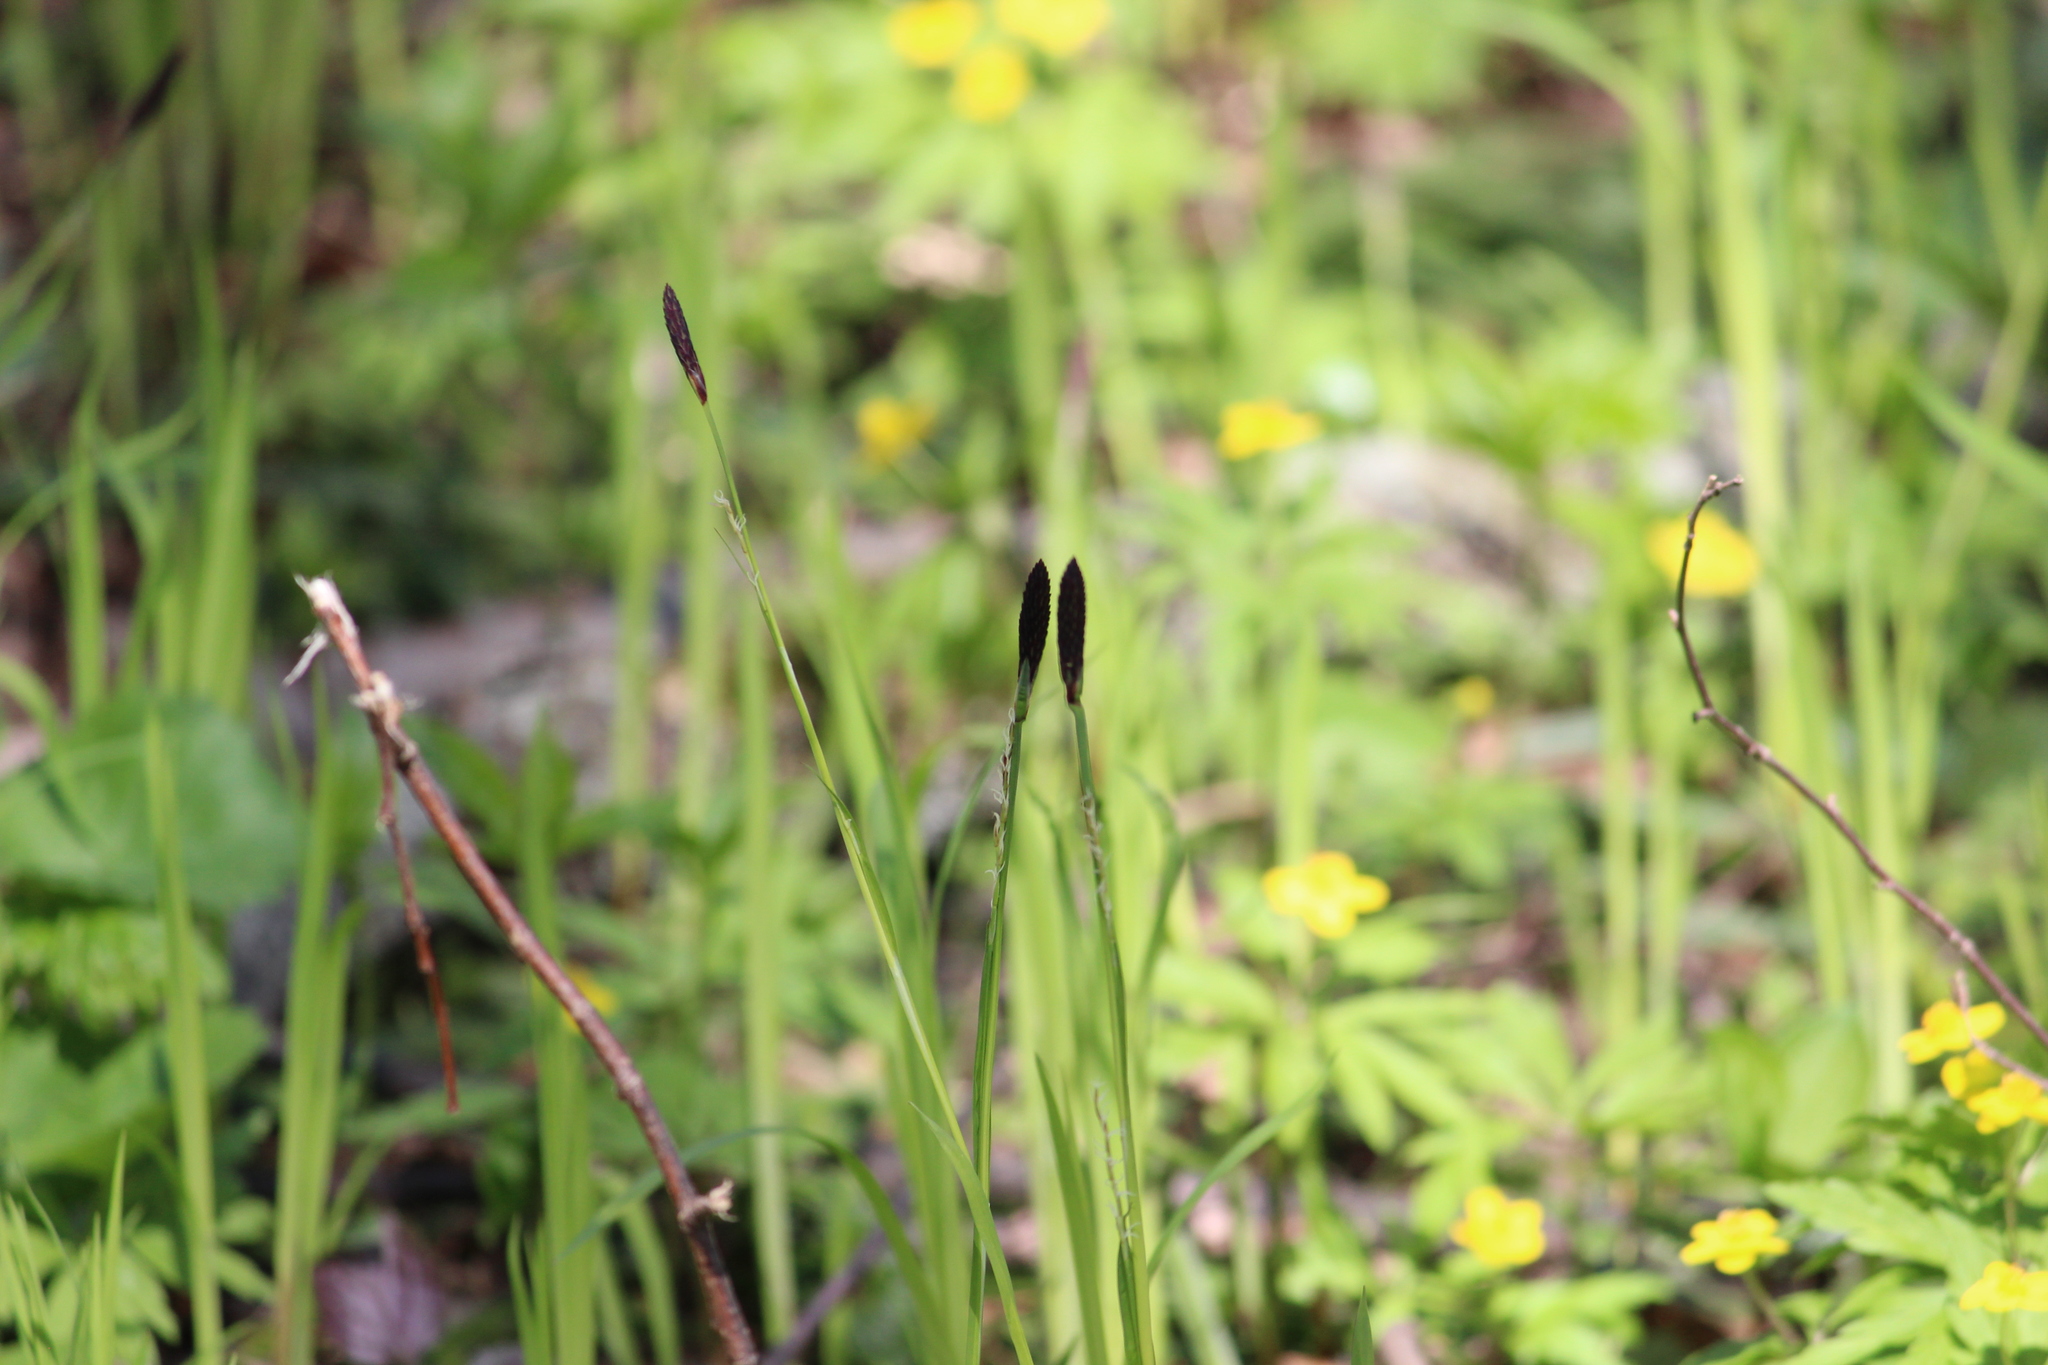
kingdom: Plantae
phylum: Tracheophyta
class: Liliopsida
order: Poales
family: Cyperaceae
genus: Carex
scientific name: Carex pilosa
